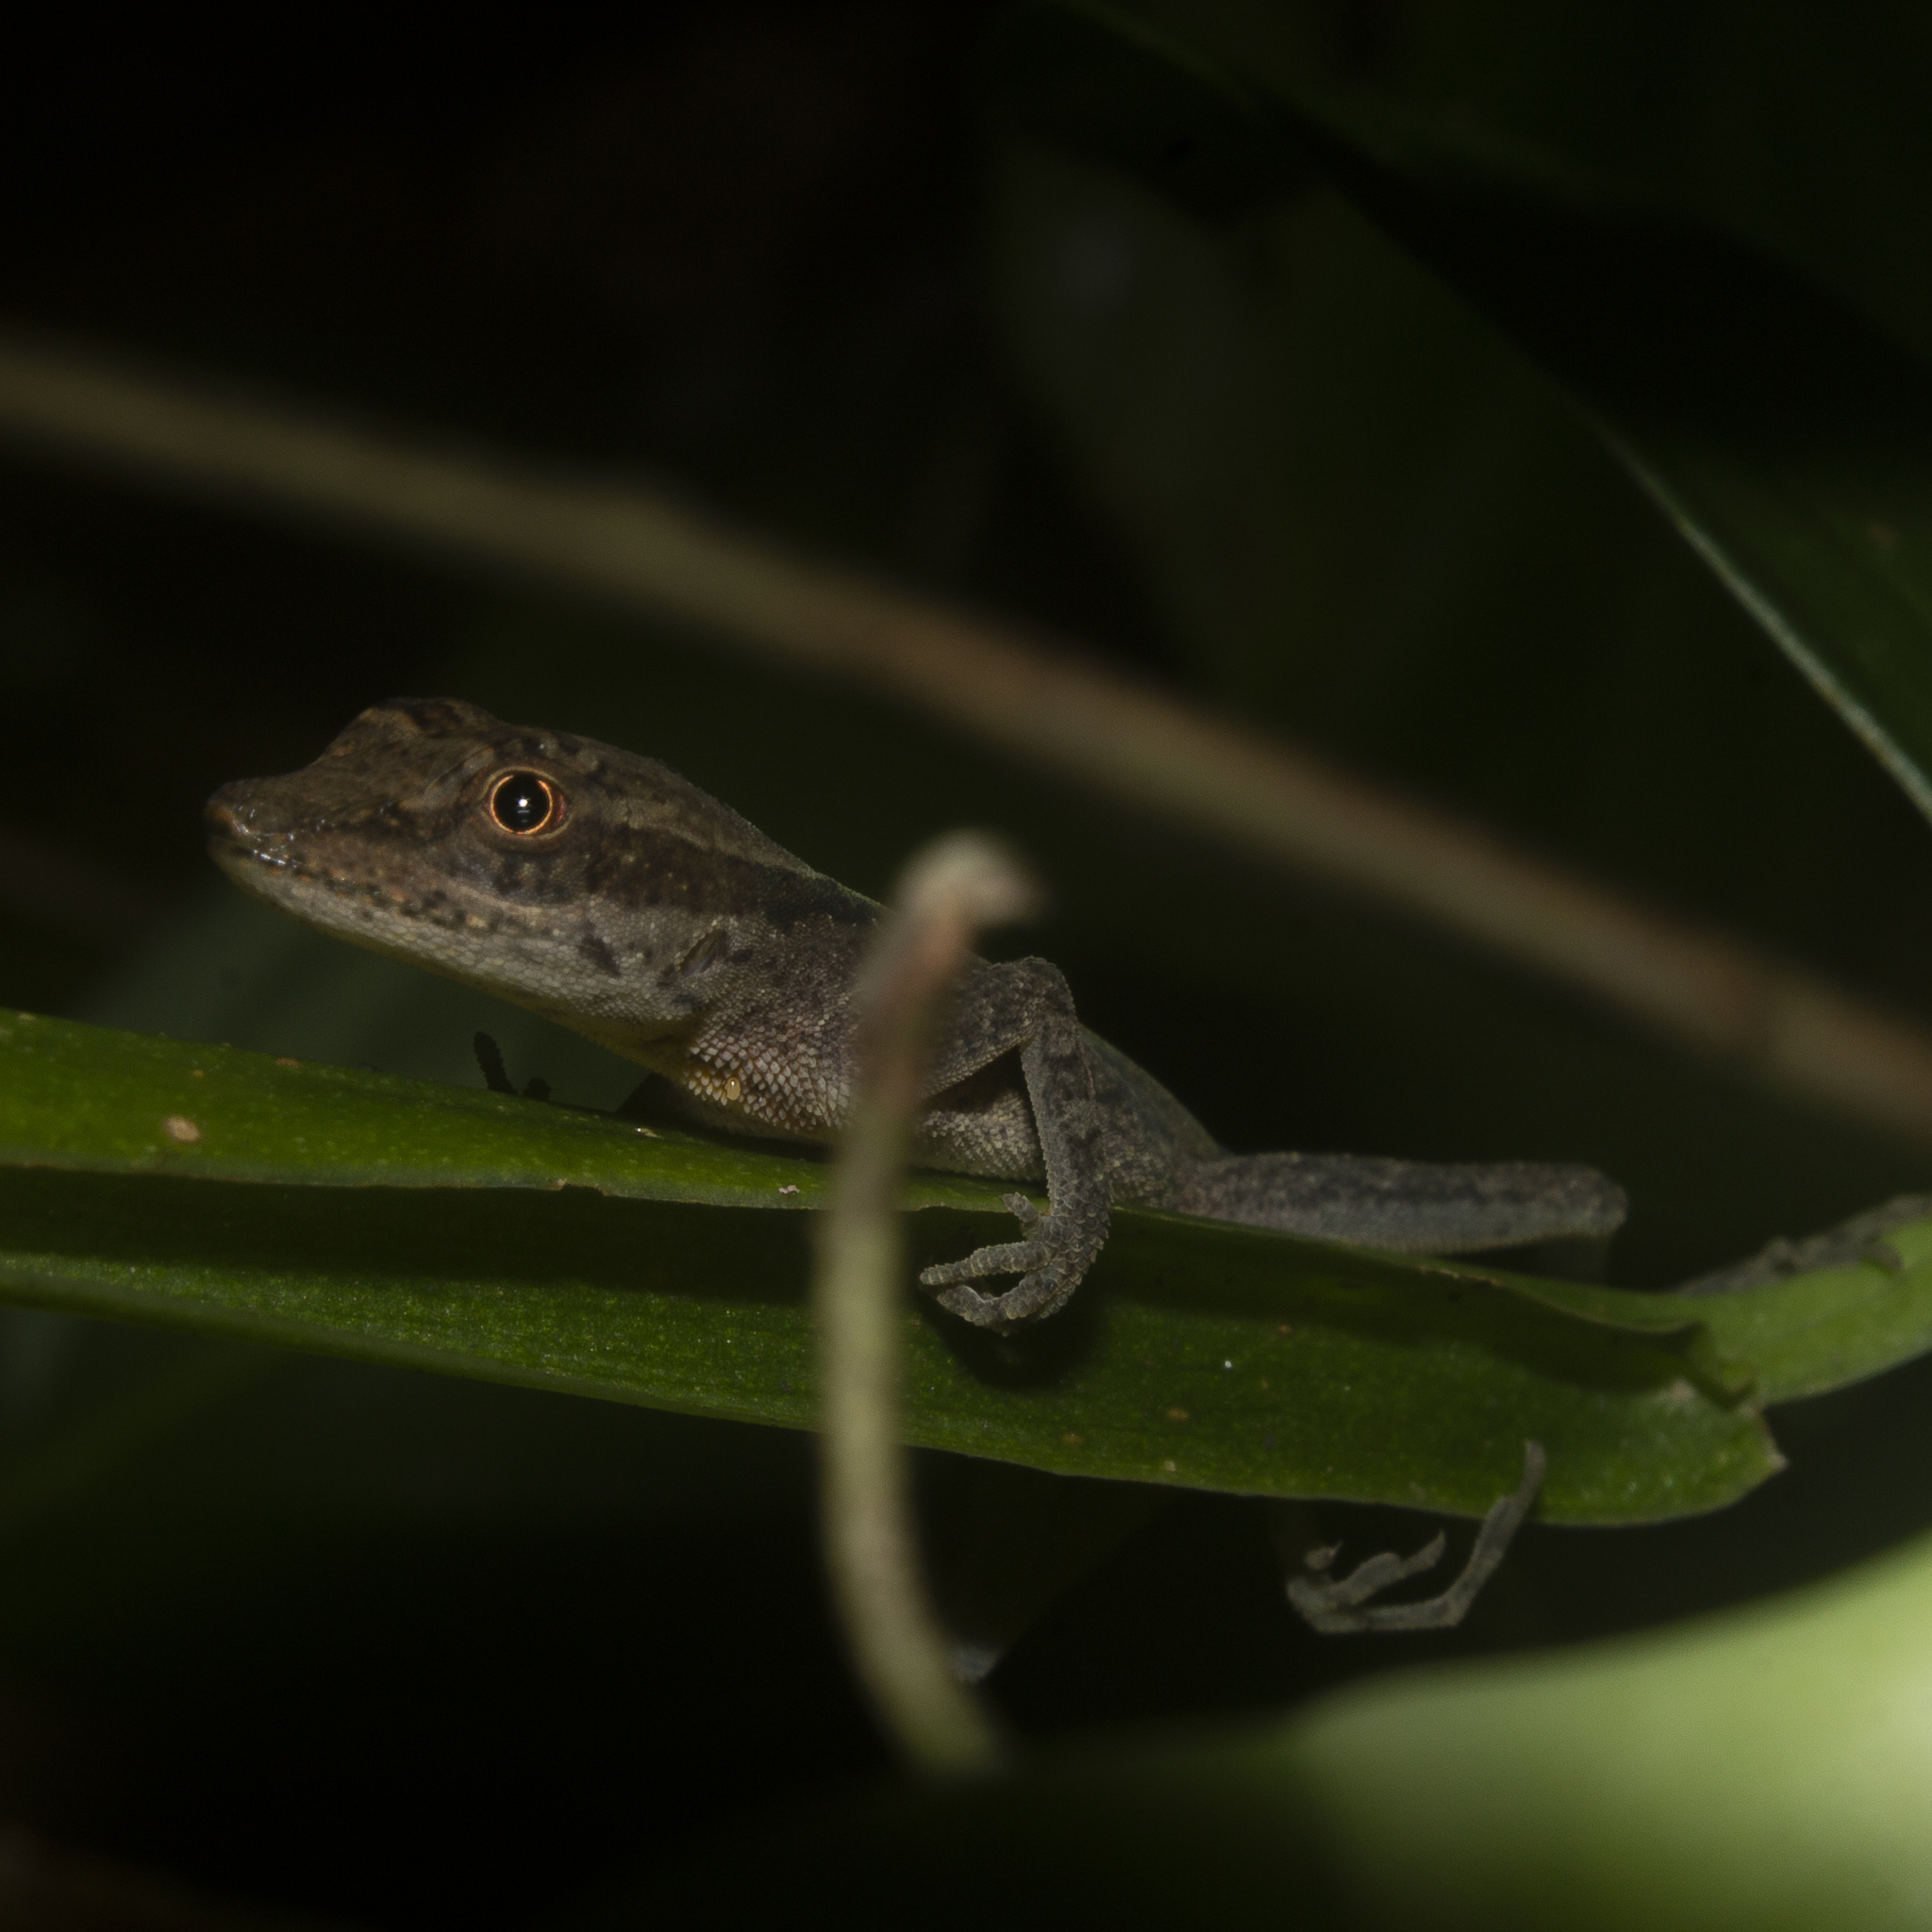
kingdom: Animalia
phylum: Chordata
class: Squamata
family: Dactyloidae
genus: Anolis
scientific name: Anolis gaigei
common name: Gaige’s anole
